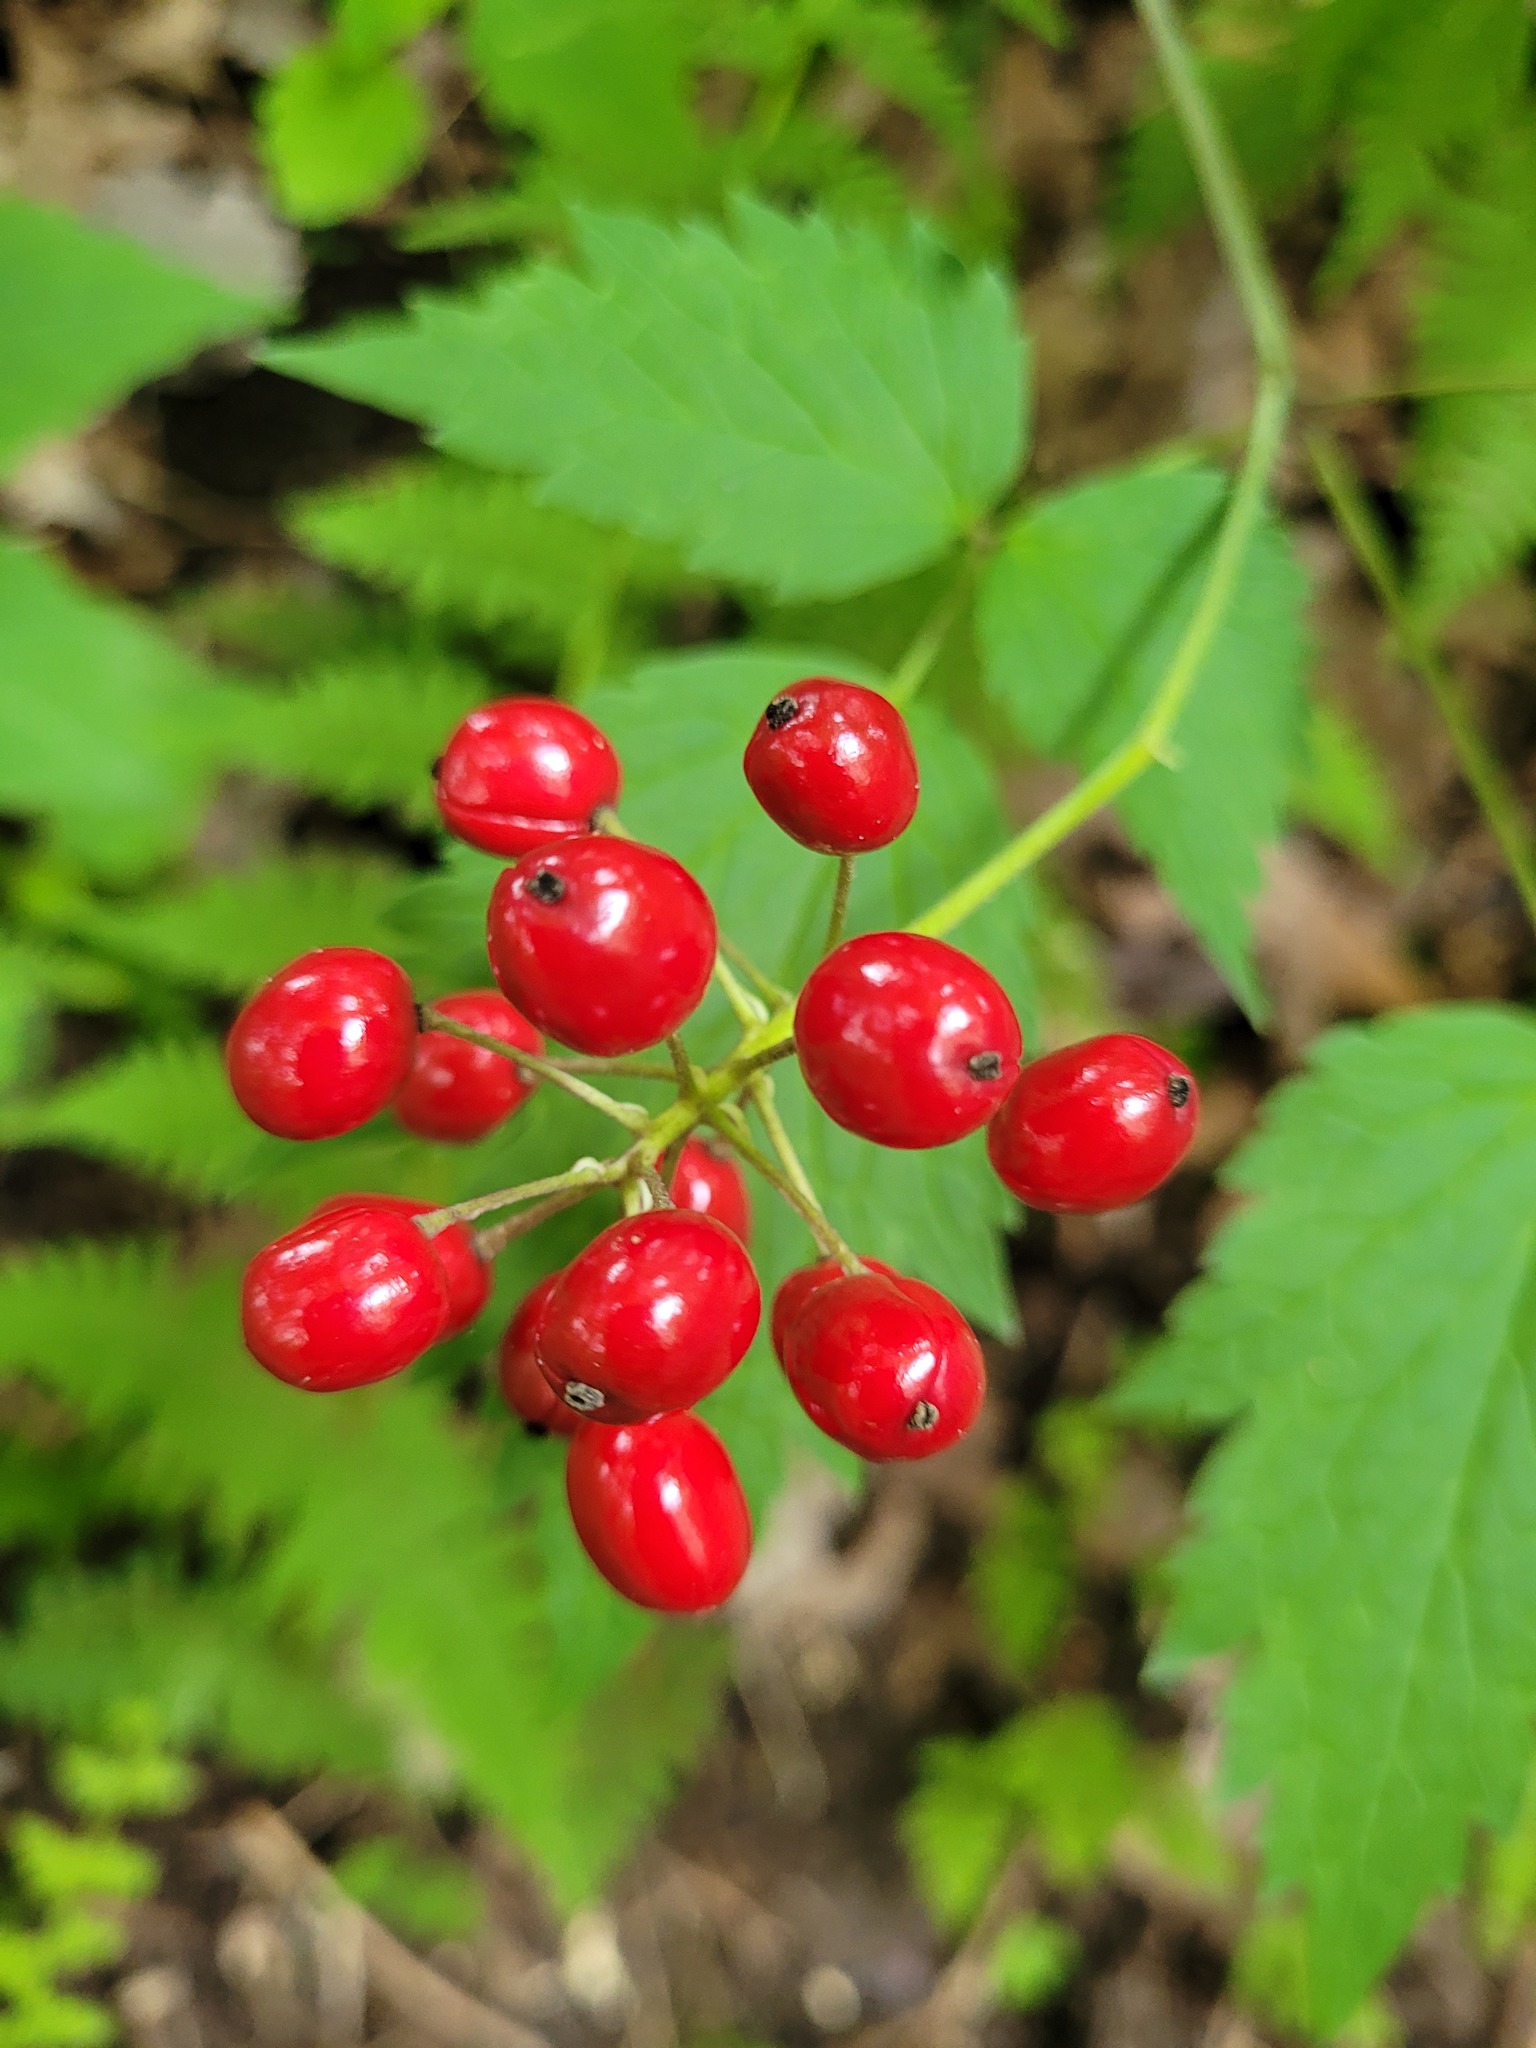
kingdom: Plantae
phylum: Tracheophyta
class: Magnoliopsida
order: Ranunculales
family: Ranunculaceae
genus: Actaea
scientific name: Actaea rubra
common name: Red baneberry
